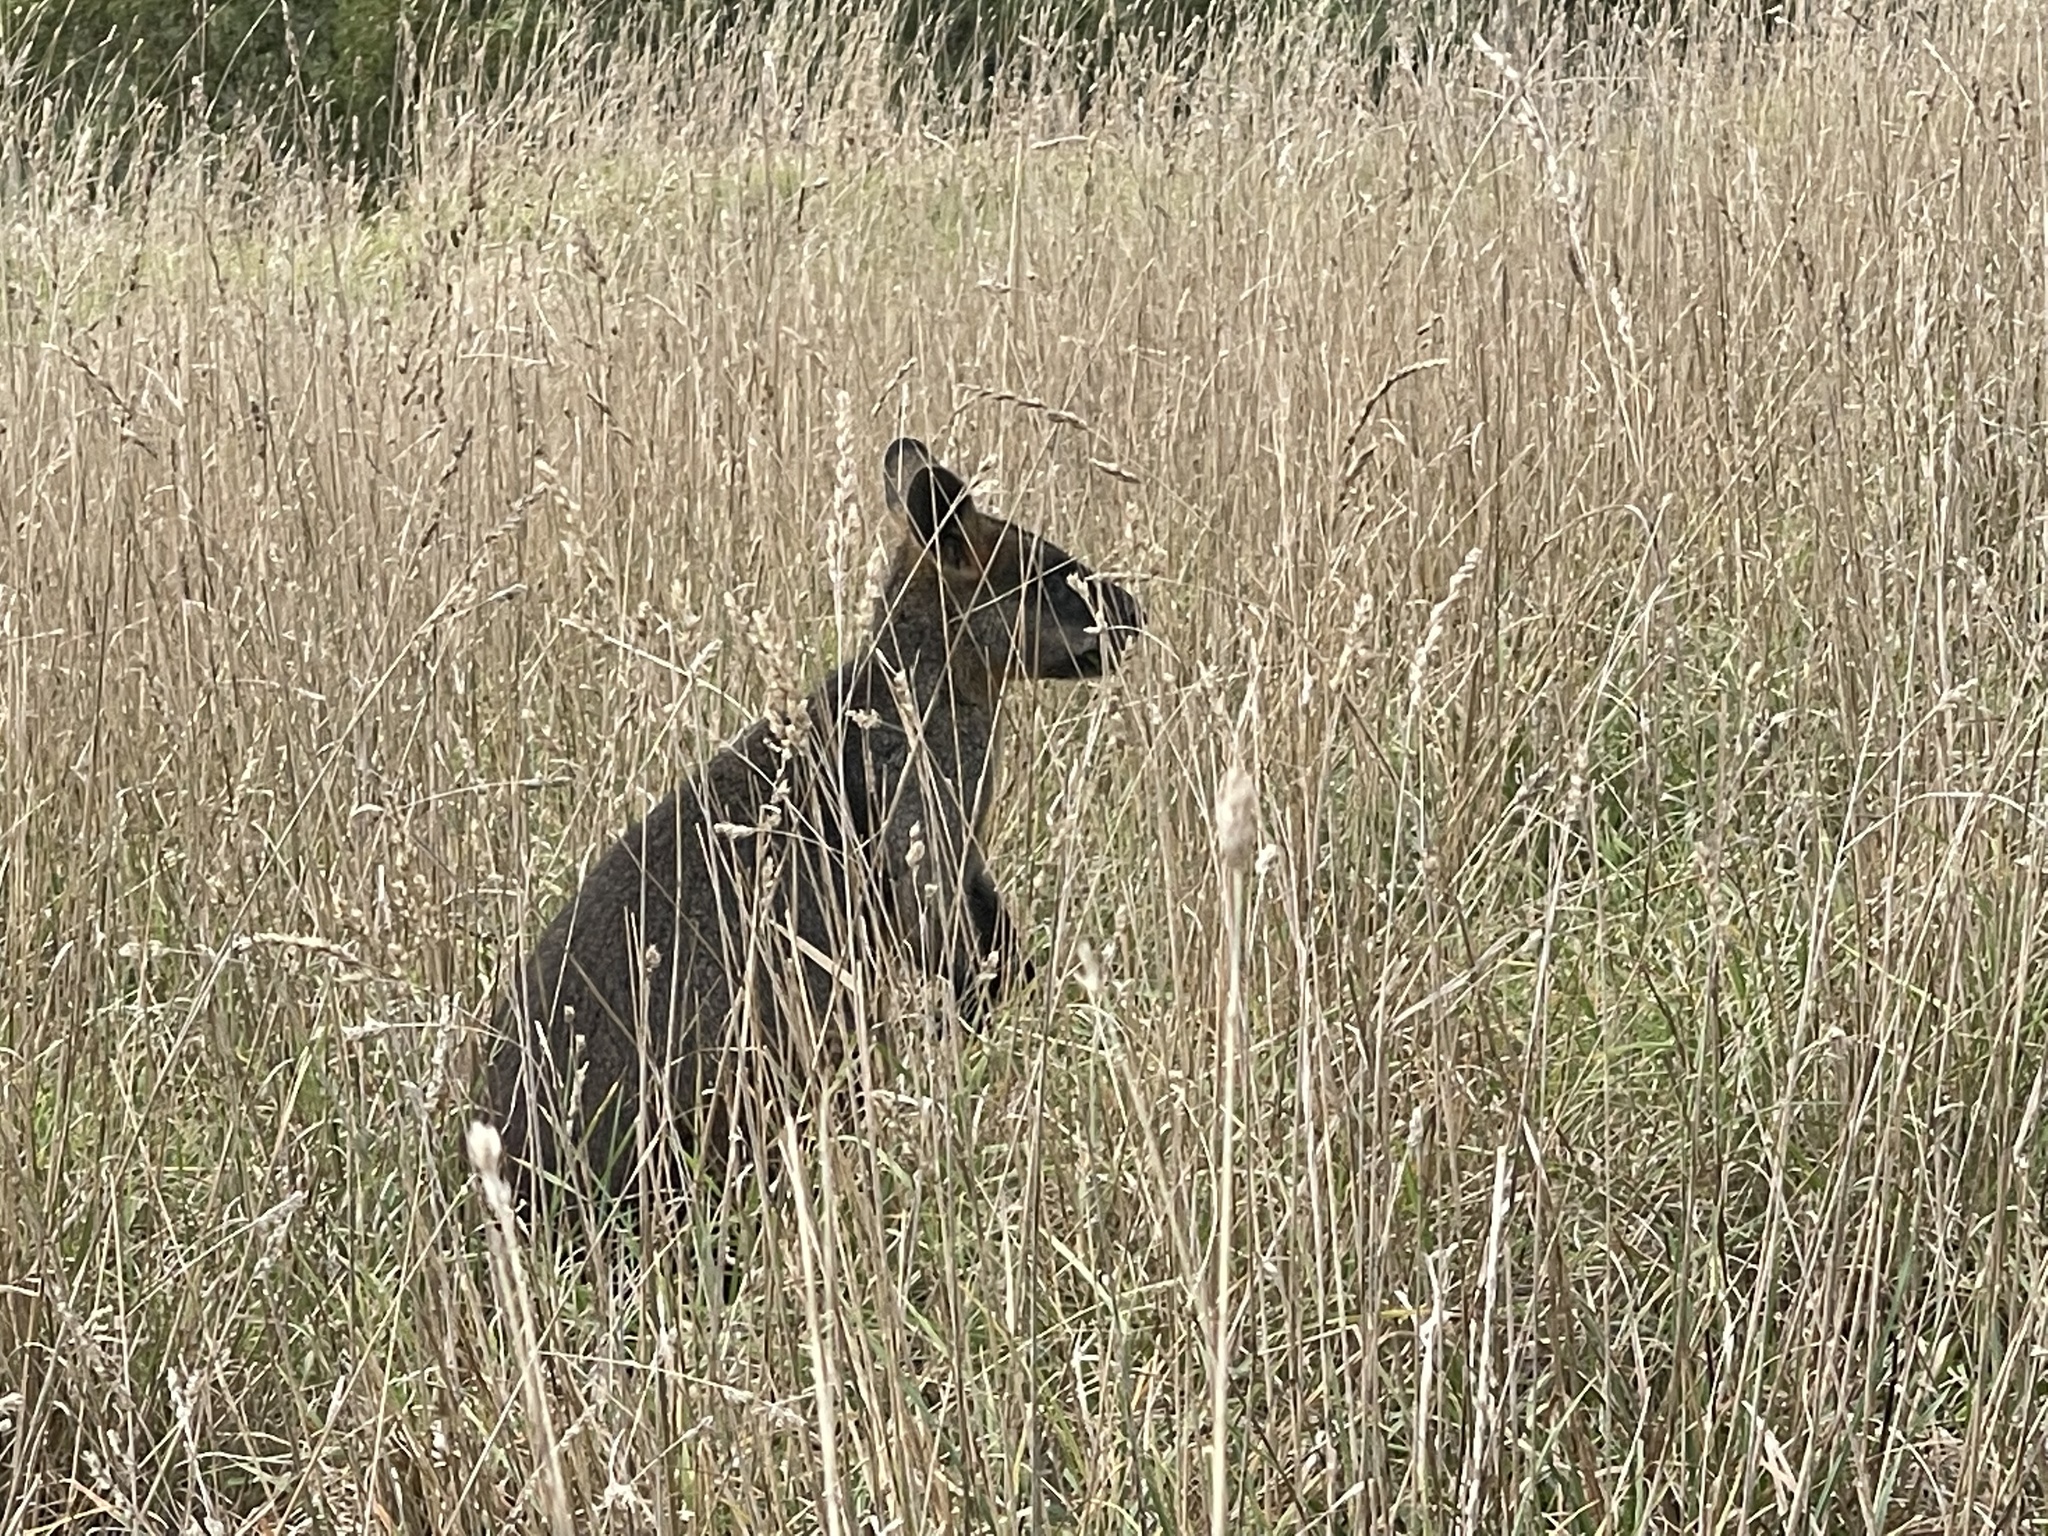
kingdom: Animalia
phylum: Chordata
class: Mammalia
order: Diprotodontia
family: Macropodidae
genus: Wallabia
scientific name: Wallabia bicolor
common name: Swamp wallaby
